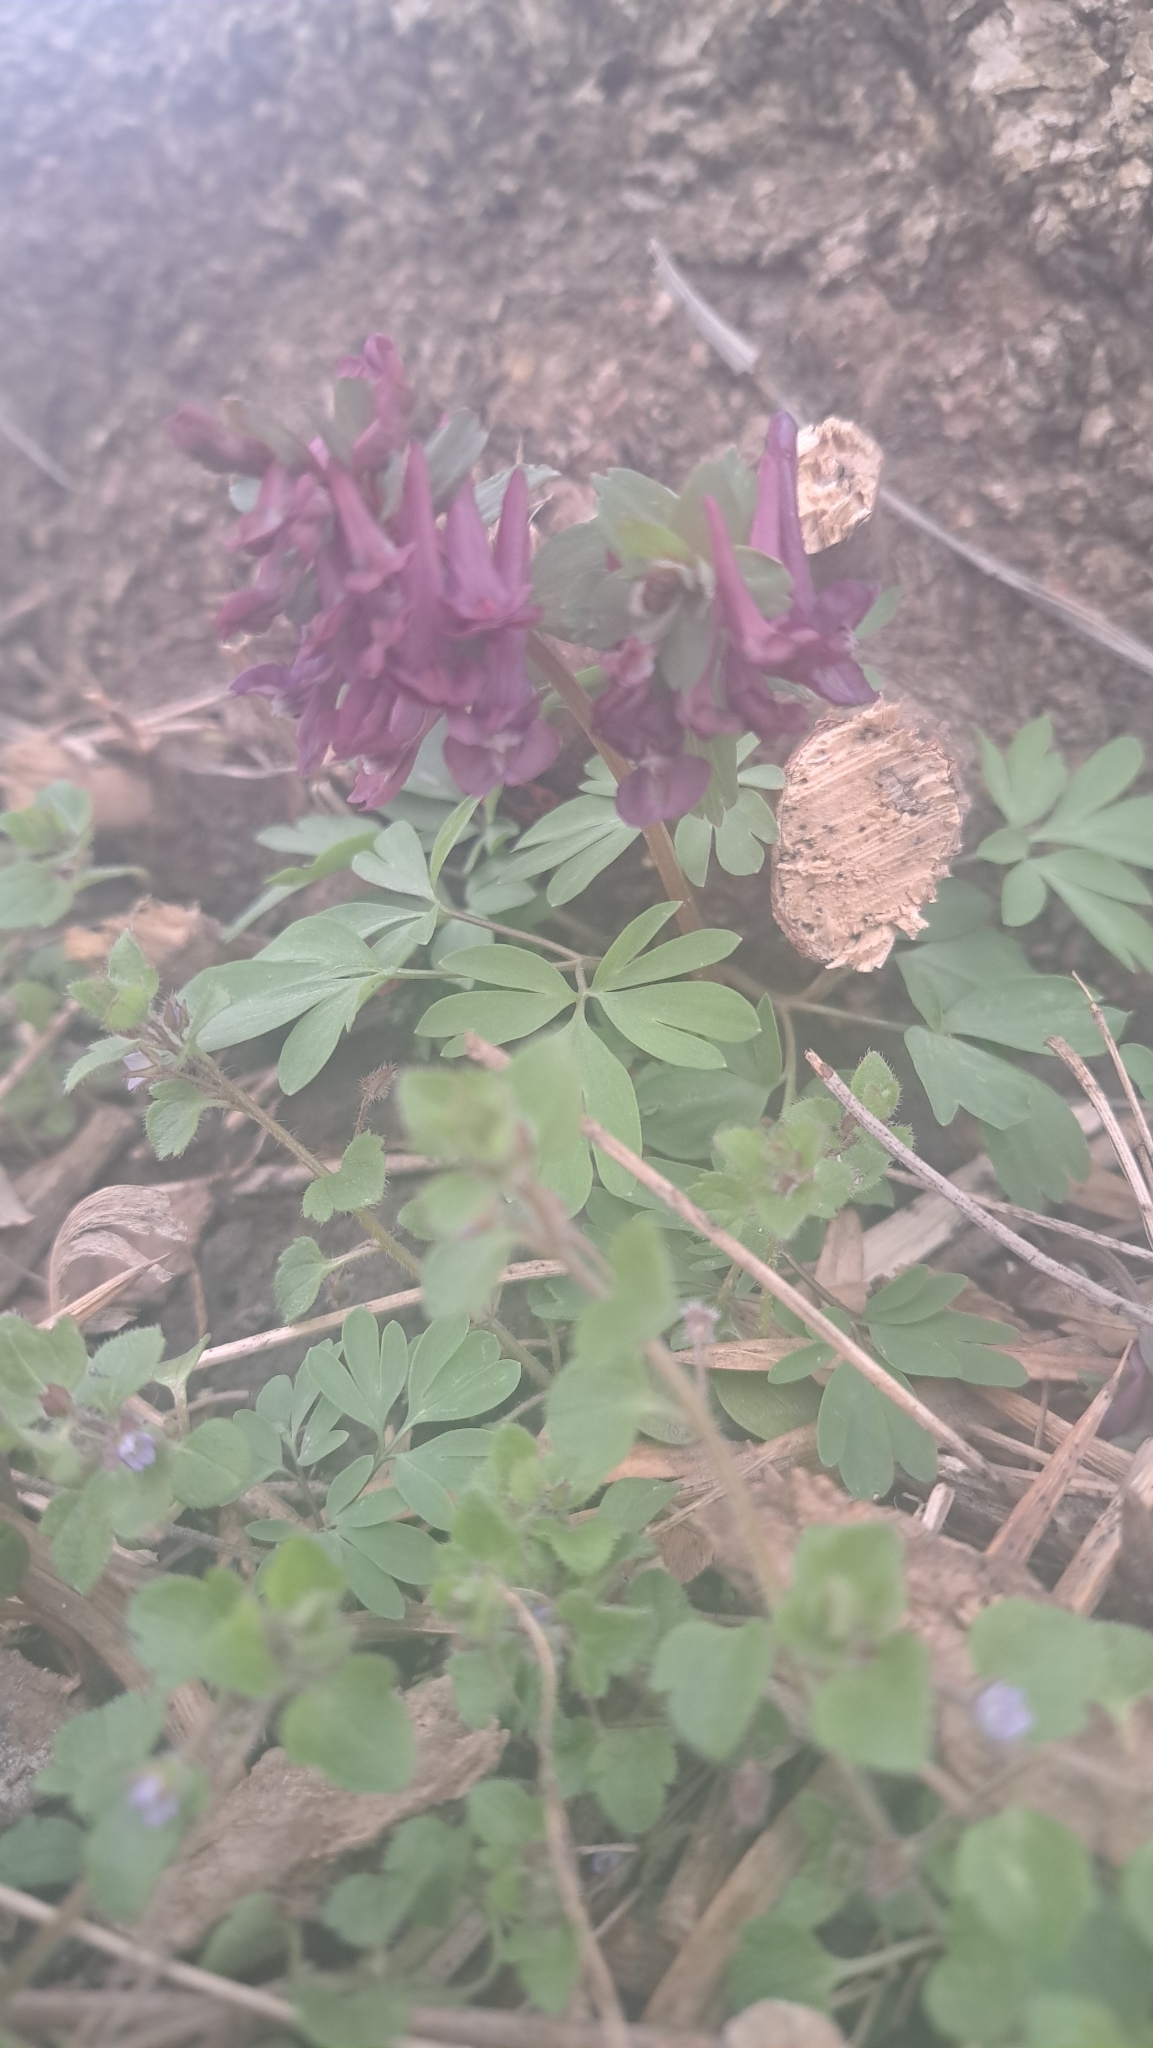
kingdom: Plantae
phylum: Tracheophyta
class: Magnoliopsida
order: Ranunculales
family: Papaveraceae
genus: Corydalis
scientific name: Corydalis solida
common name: Bird-in-a-bush
